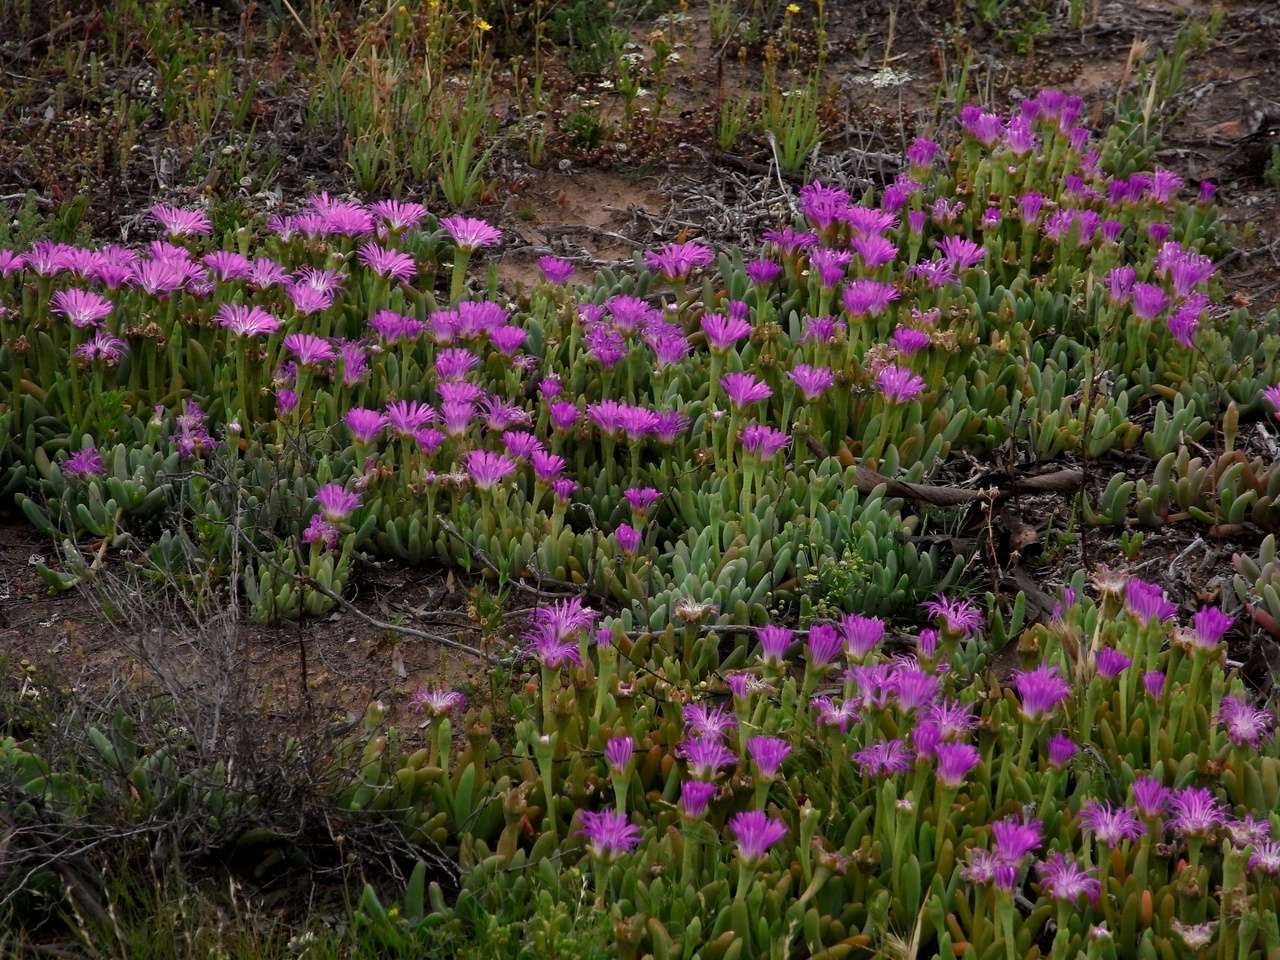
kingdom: Plantae
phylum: Tracheophyta
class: Magnoliopsida
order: Caryophyllales
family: Aizoaceae
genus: Disphyma
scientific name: Disphyma clavellatum
